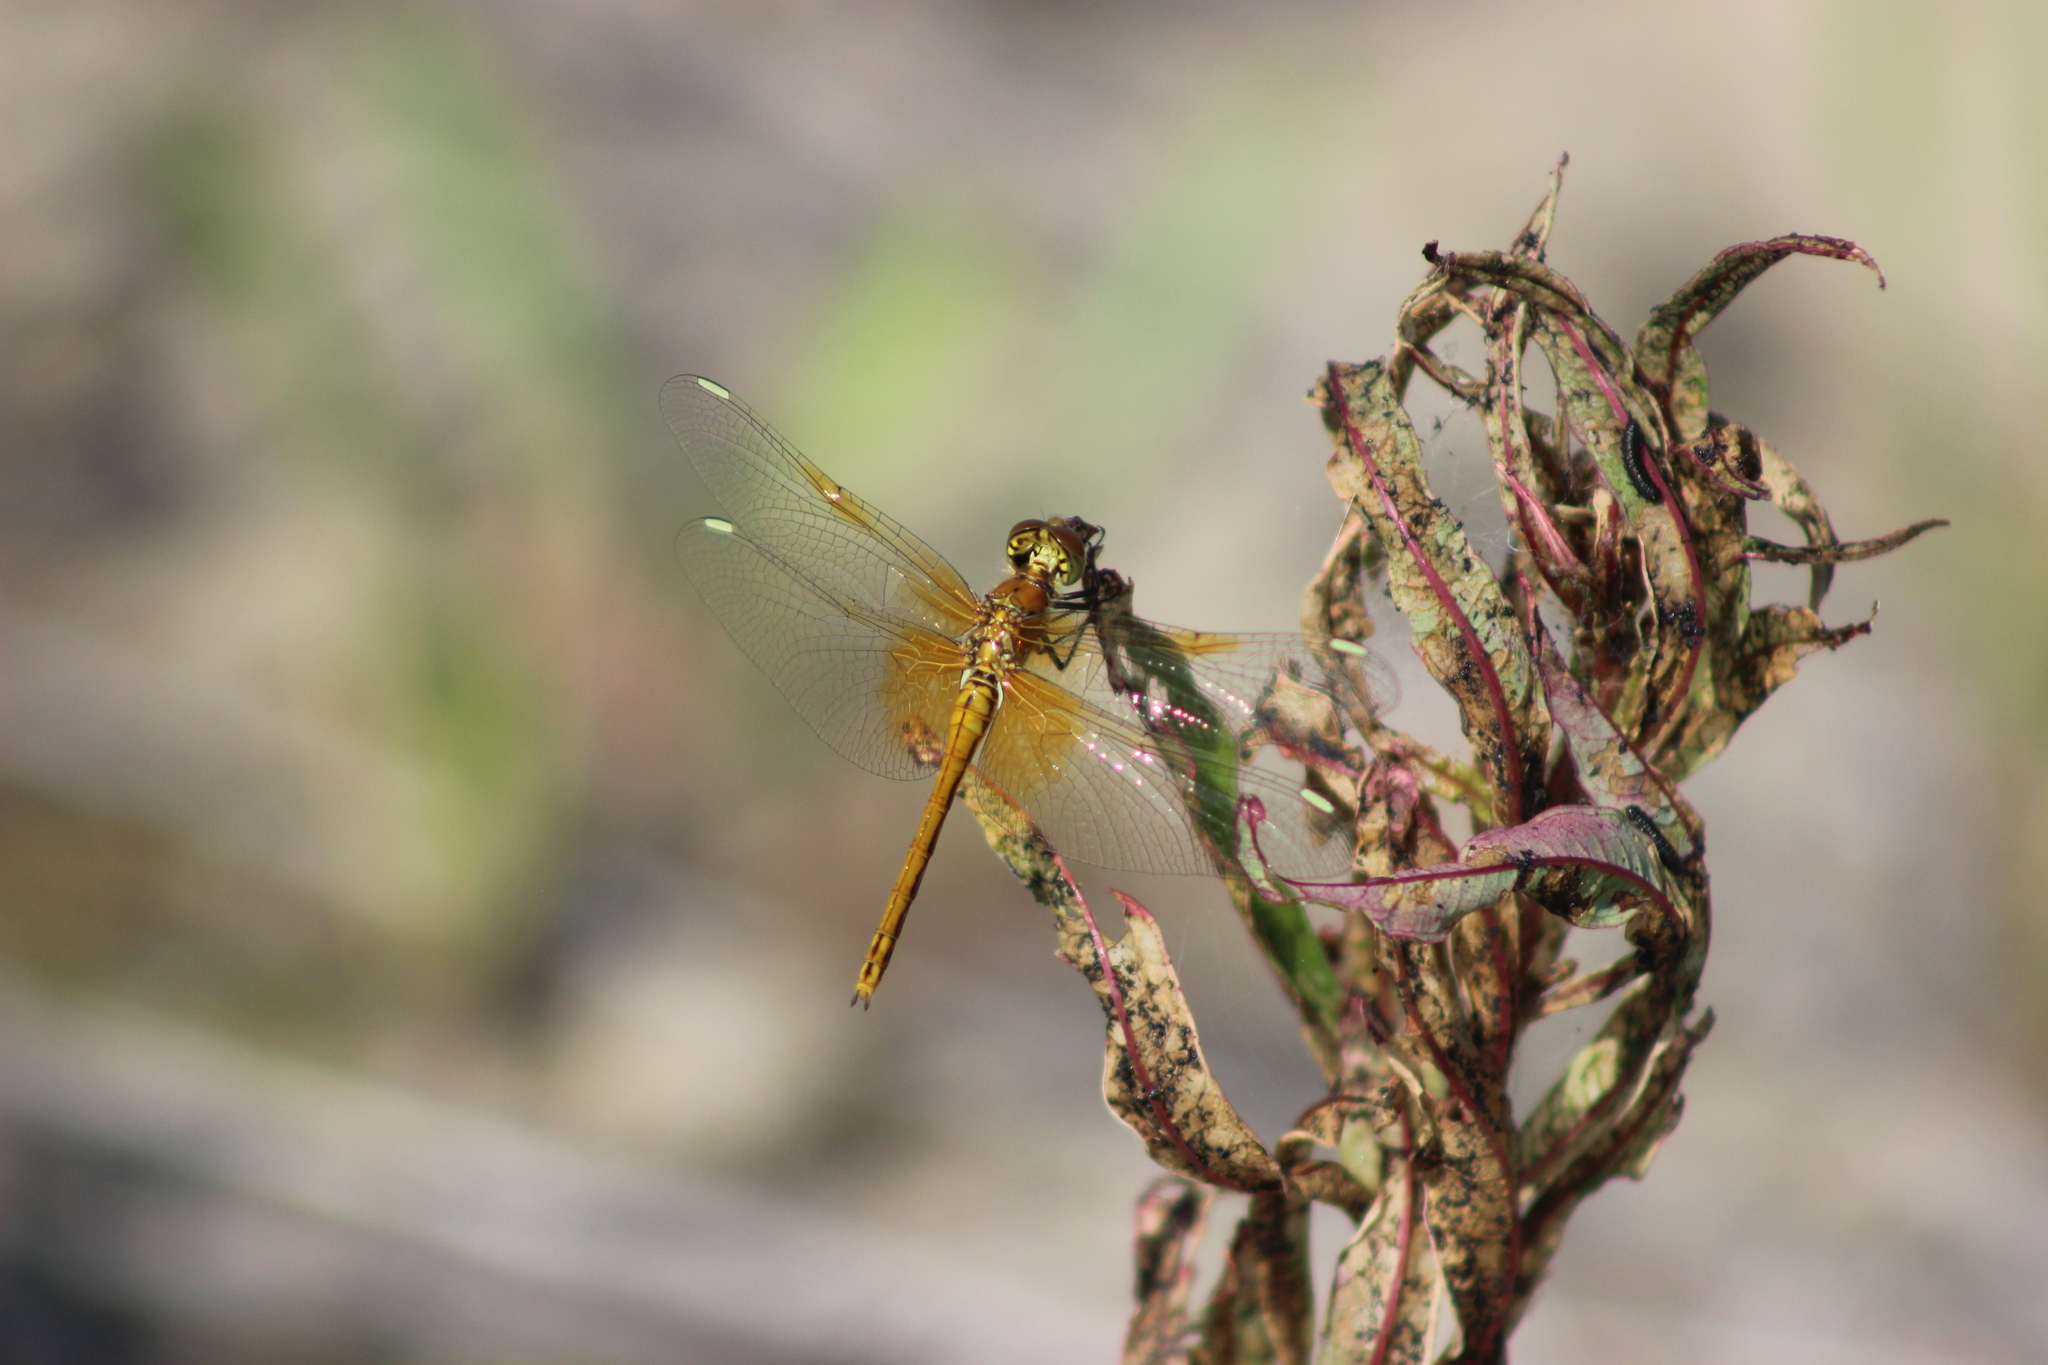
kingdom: Animalia
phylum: Arthropoda
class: Insecta
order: Odonata
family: Libellulidae
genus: Sympetrum
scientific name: Sympetrum flaveolum
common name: Yellow-winged darter
